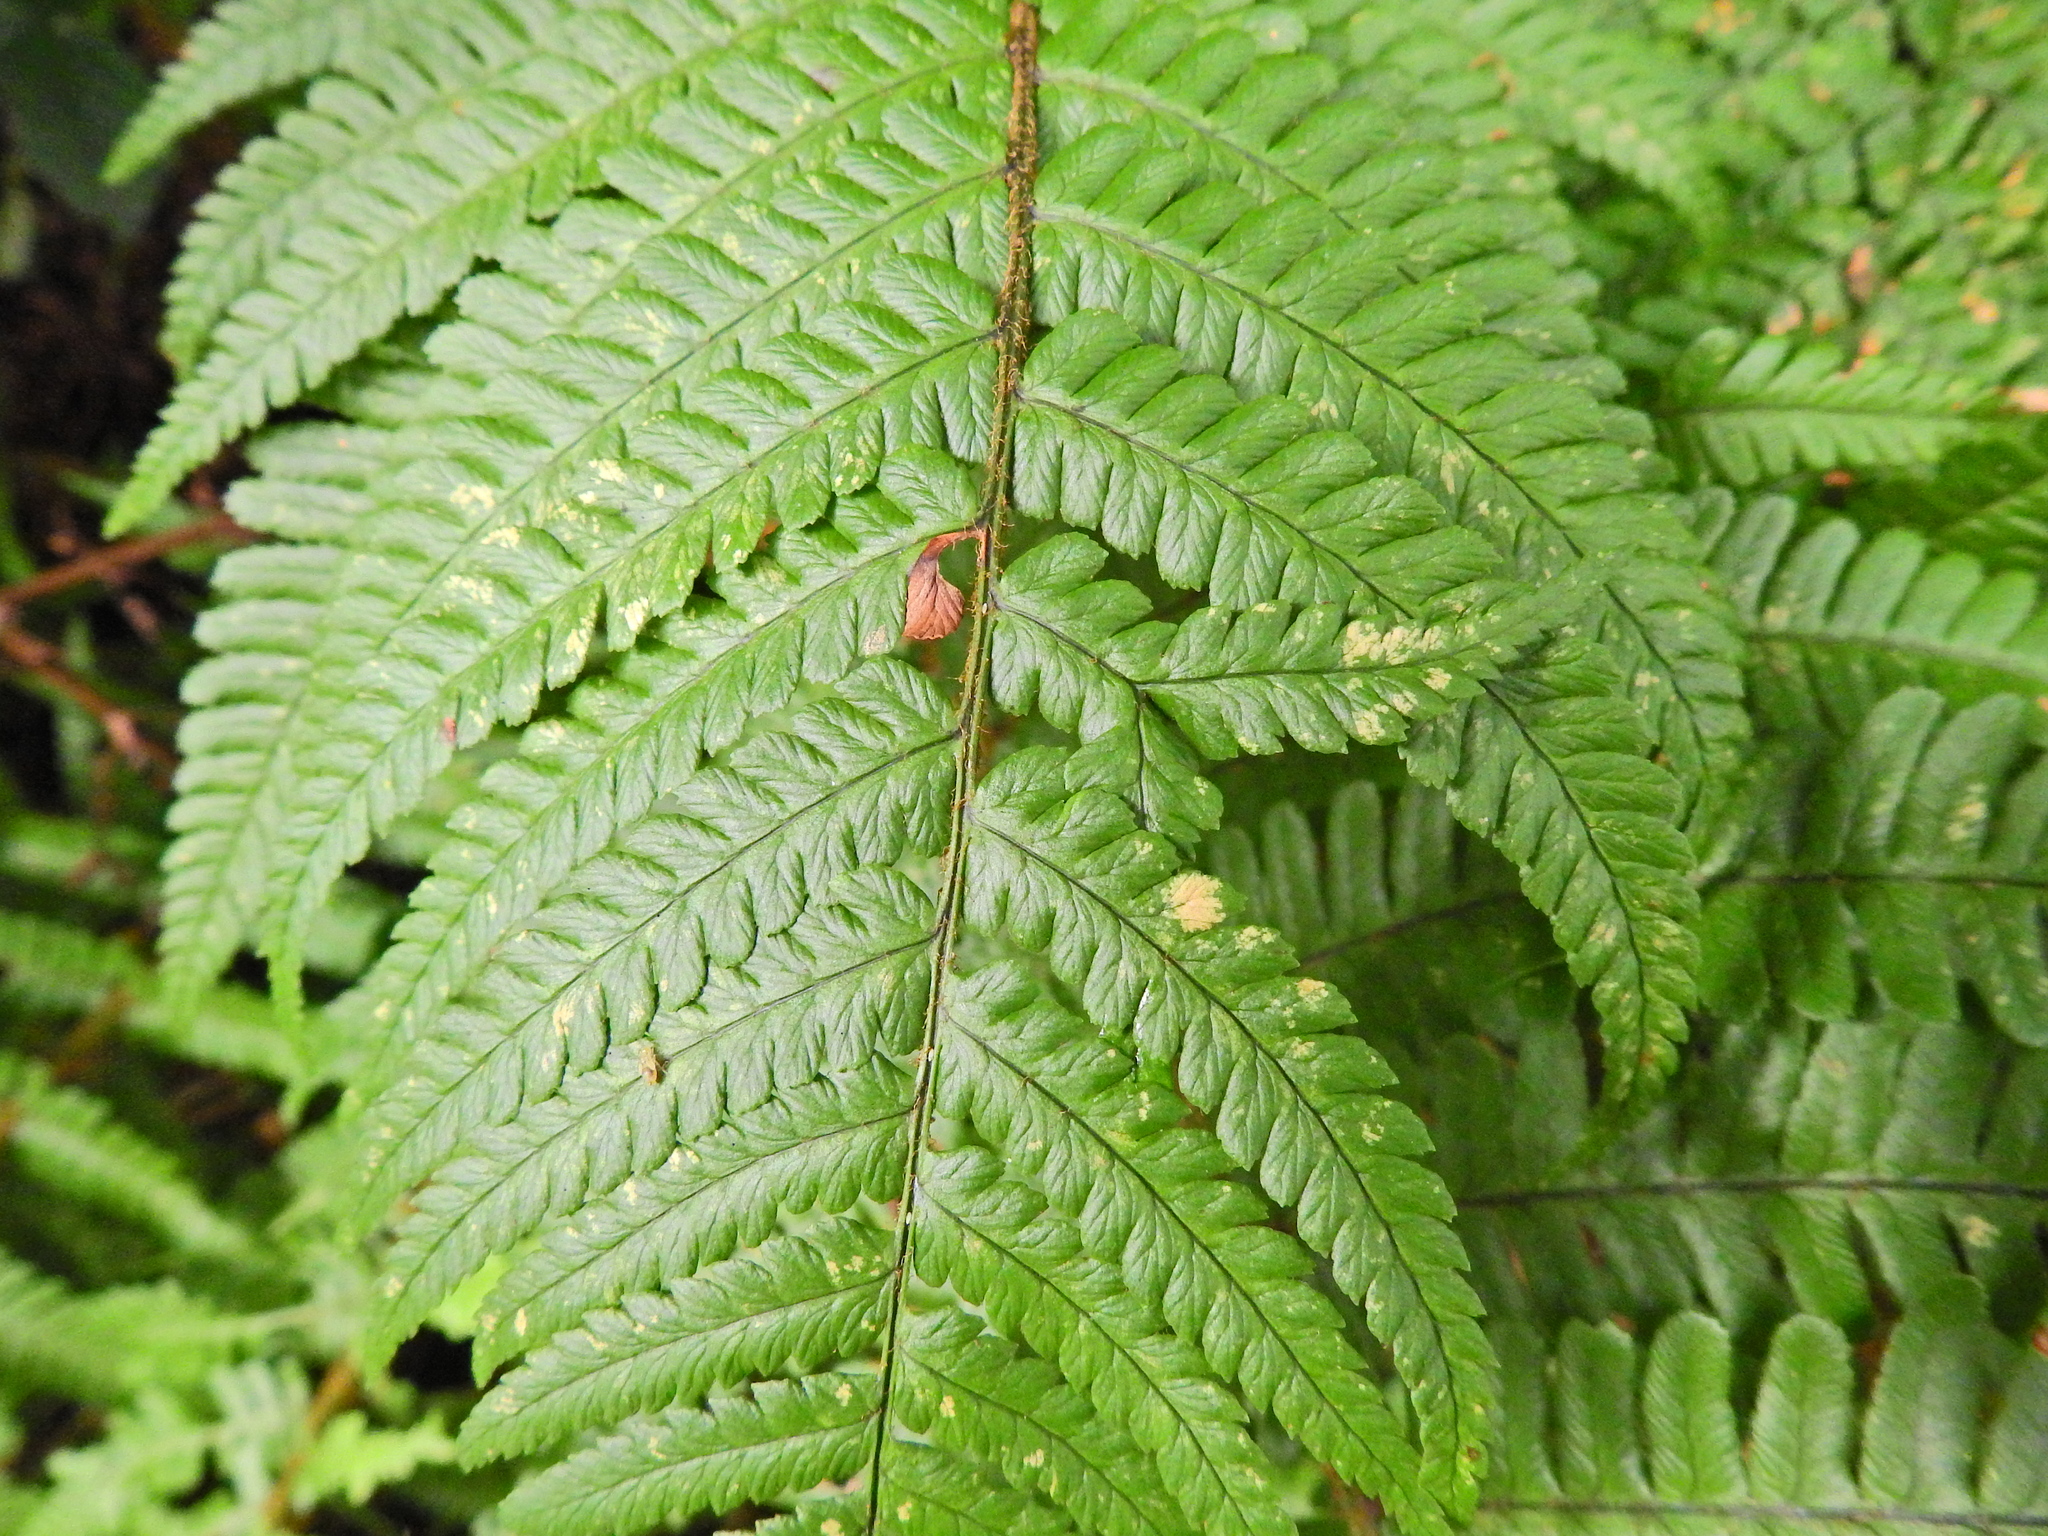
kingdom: Plantae
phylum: Tracheophyta
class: Polypodiopsida
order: Polypodiales
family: Dryopteridaceae
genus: Dryopteris
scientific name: Dryopteris filix-mas
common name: Male fern
